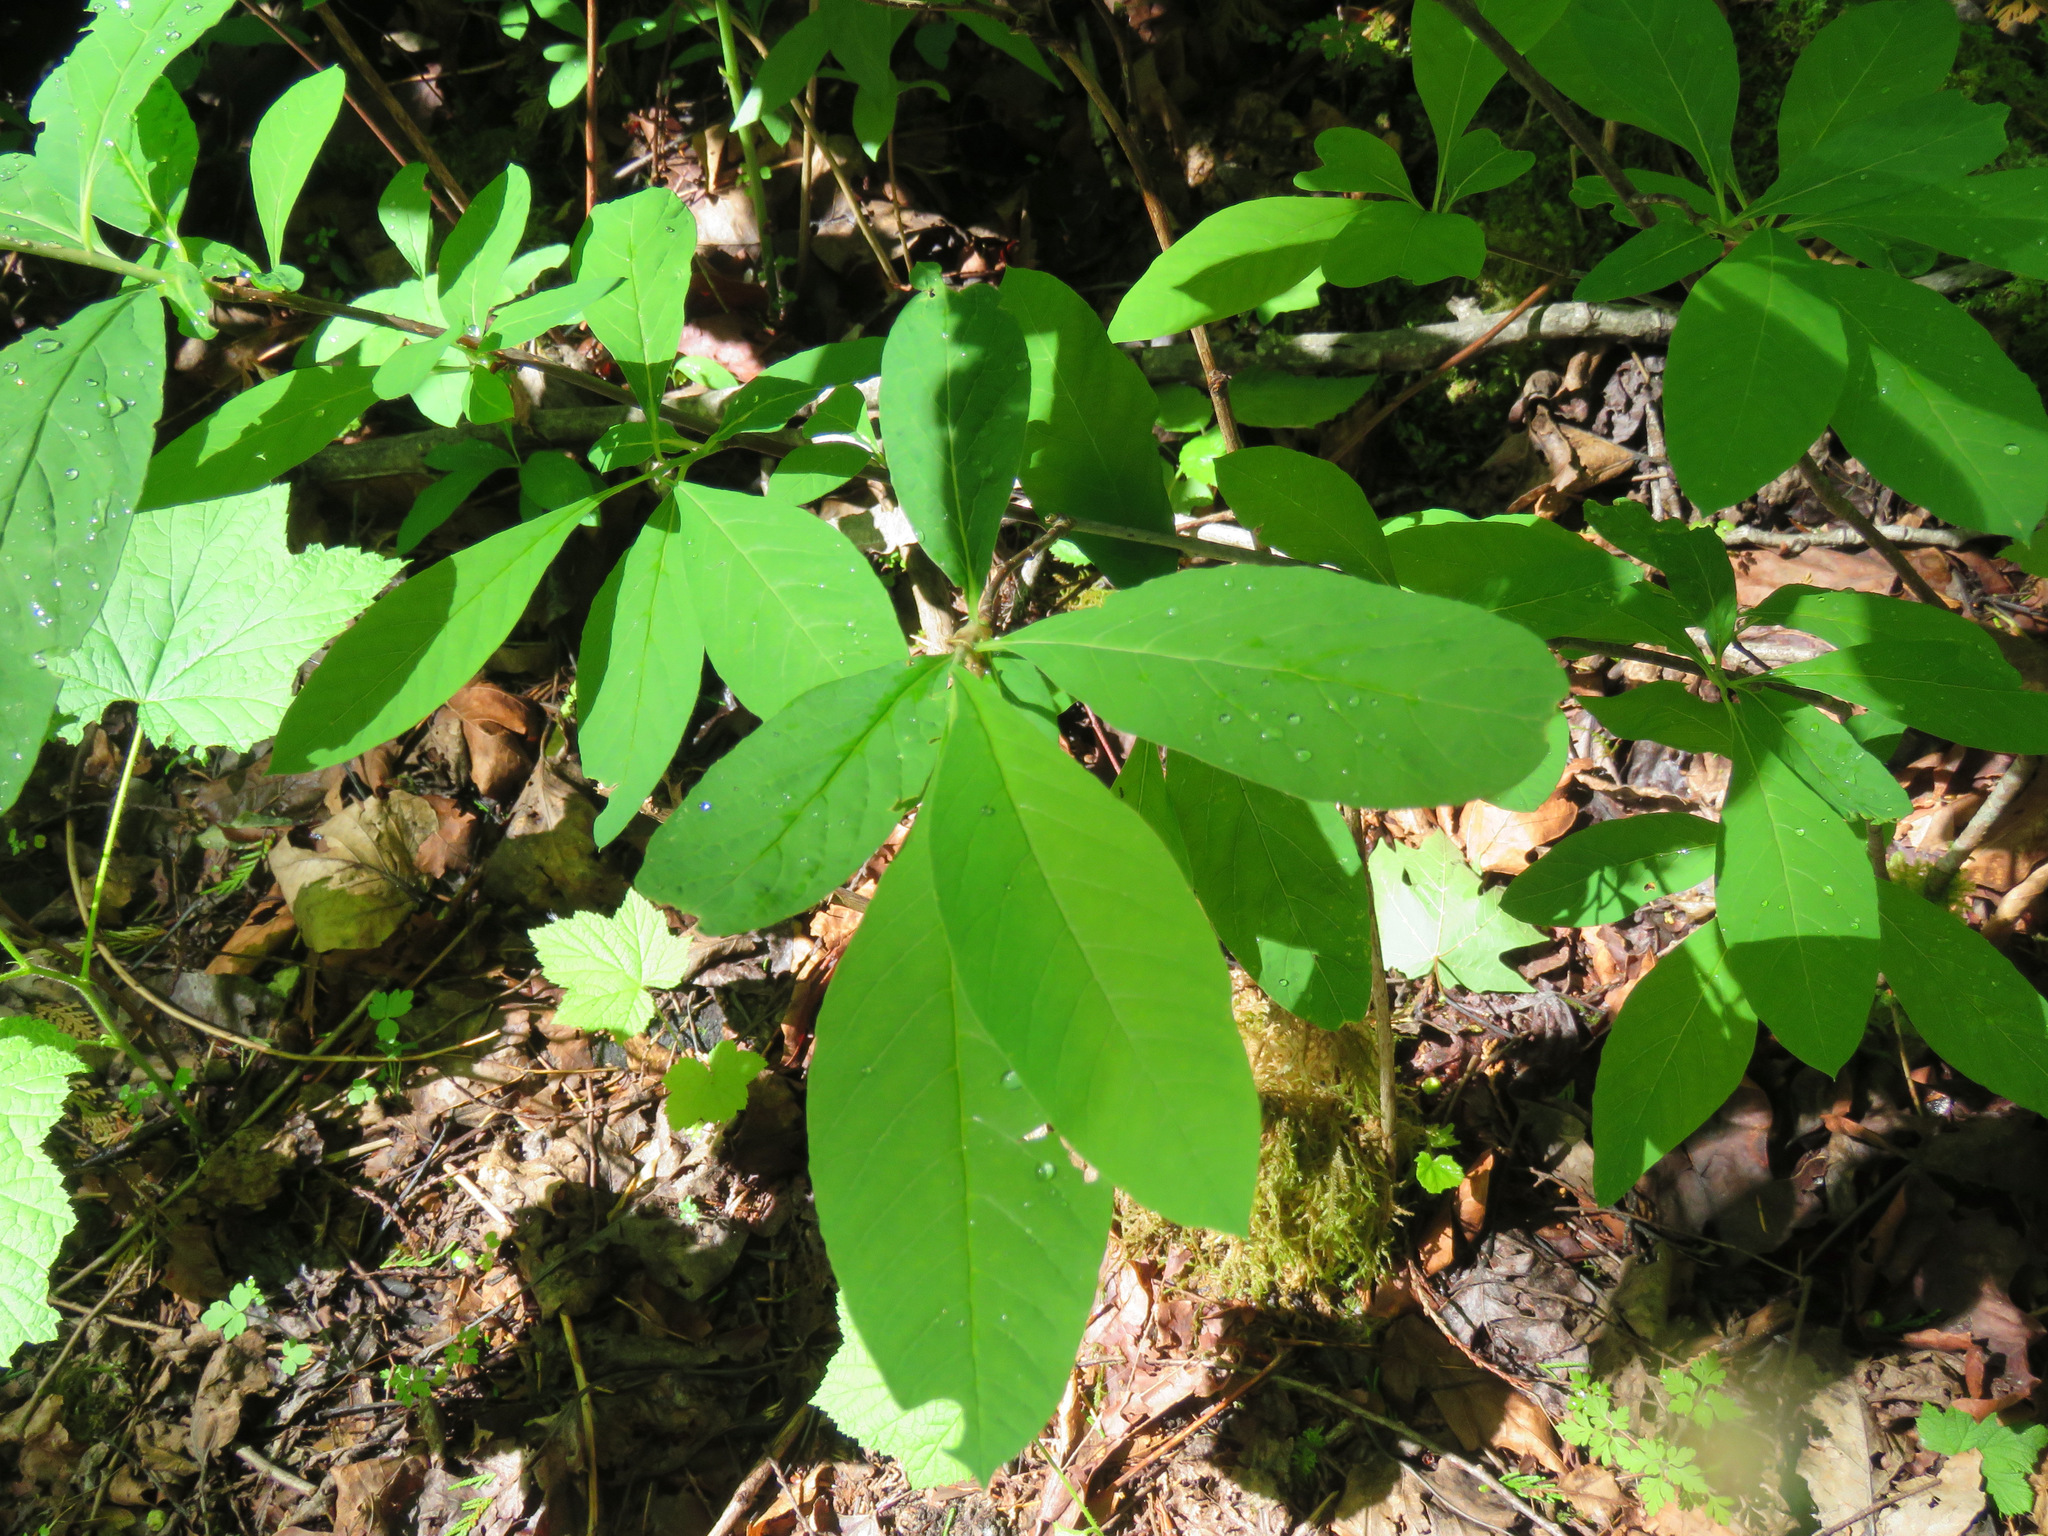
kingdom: Plantae
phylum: Tracheophyta
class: Magnoliopsida
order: Rosales
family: Rosaceae
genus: Oemleria
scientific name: Oemleria cerasiformis
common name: Osoberry
